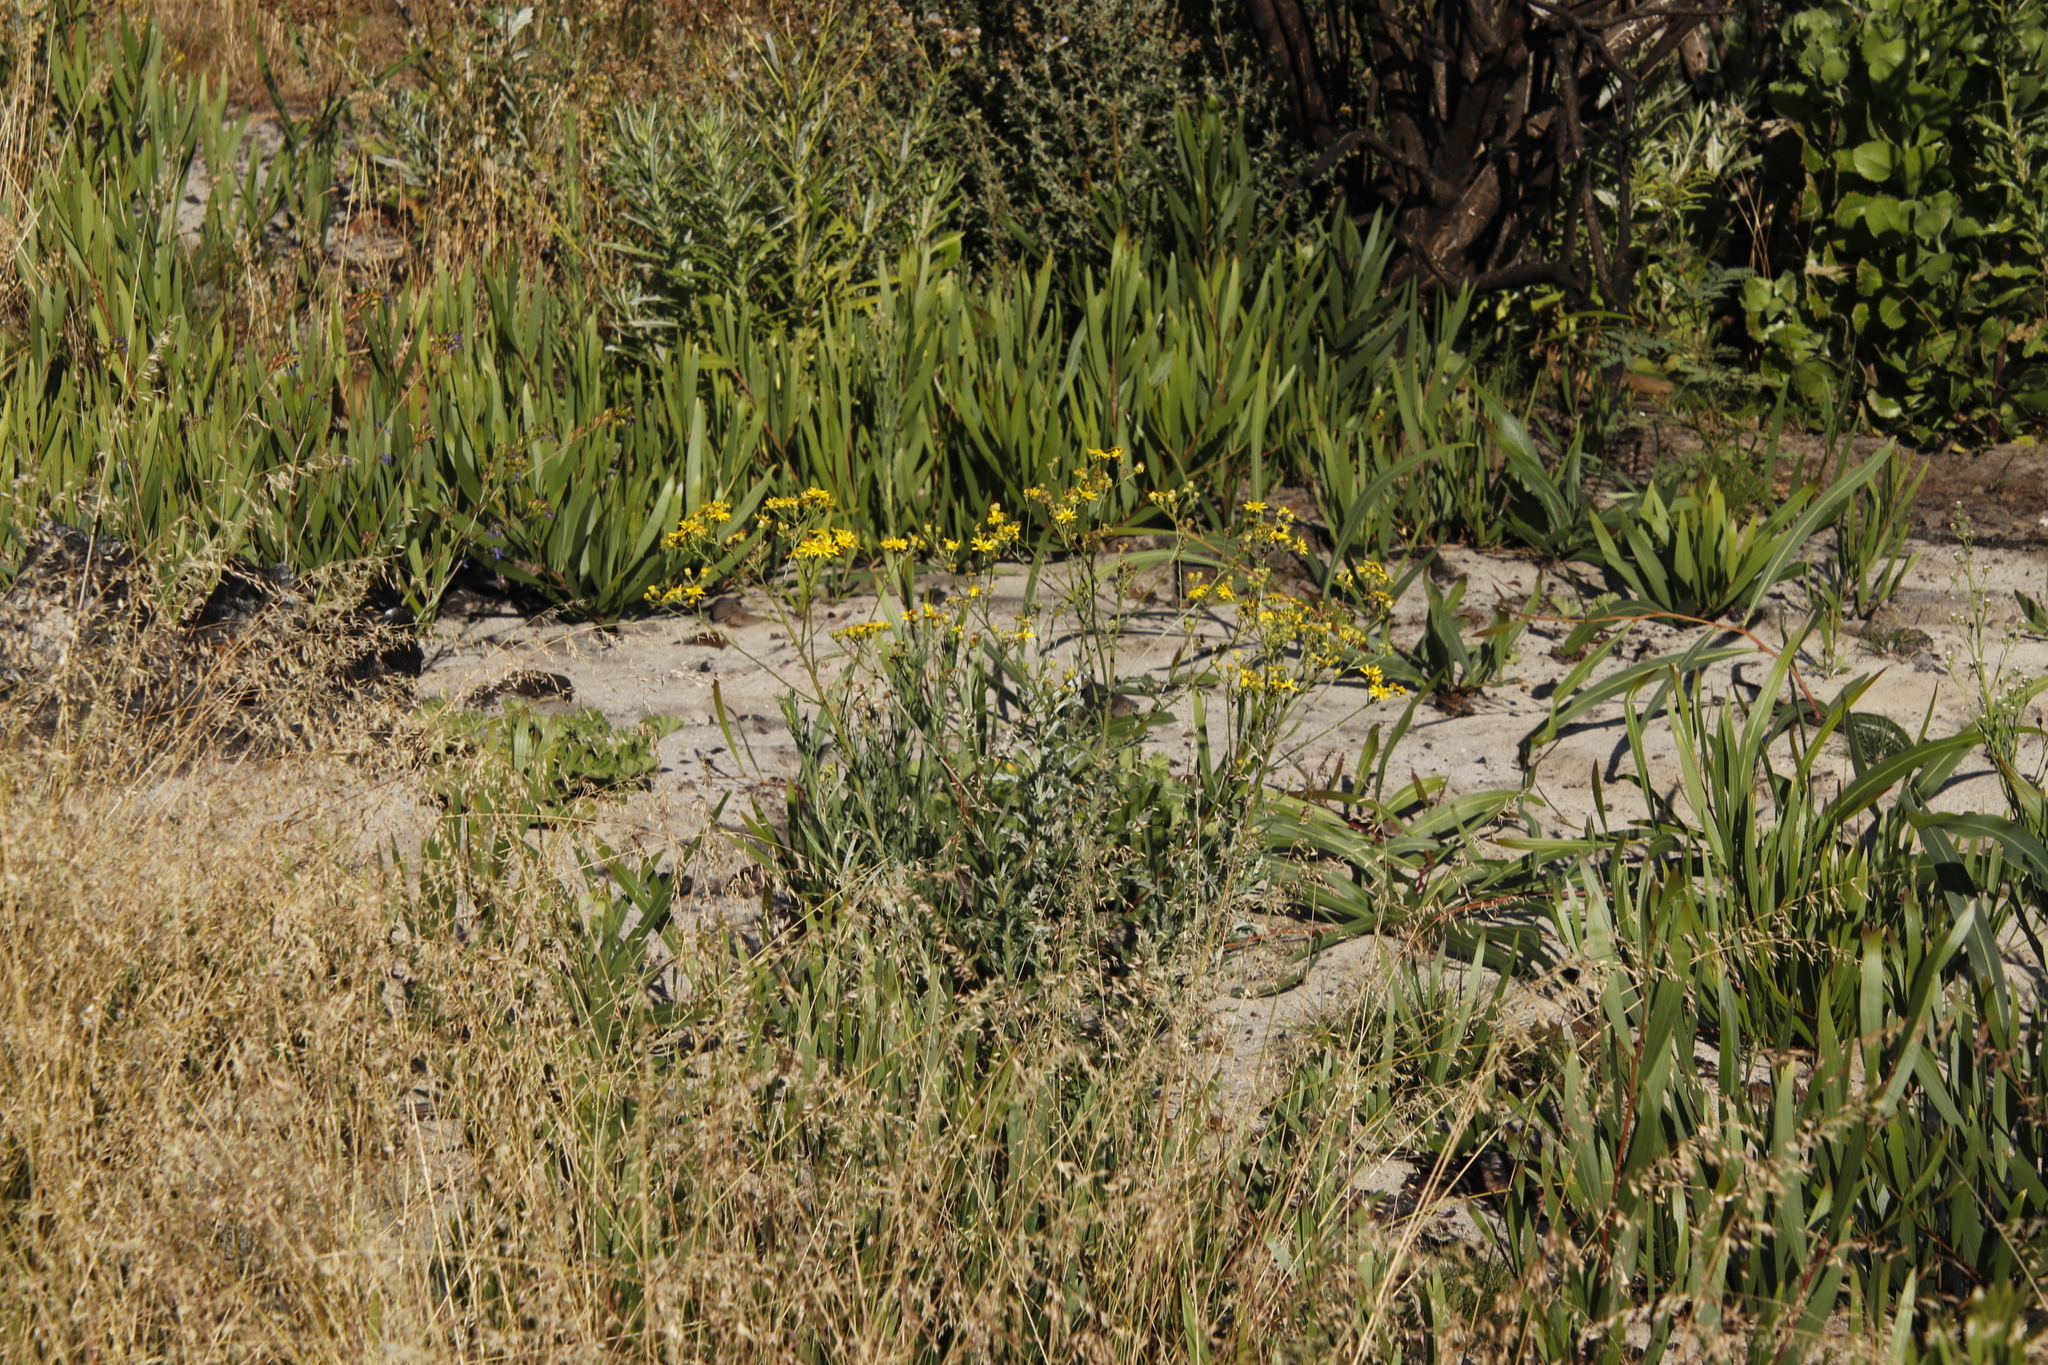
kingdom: Plantae
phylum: Tracheophyta
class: Magnoliopsida
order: Asterales
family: Asteraceae
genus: Senecio
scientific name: Senecio pterophorus
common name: Shoddy ragwort
